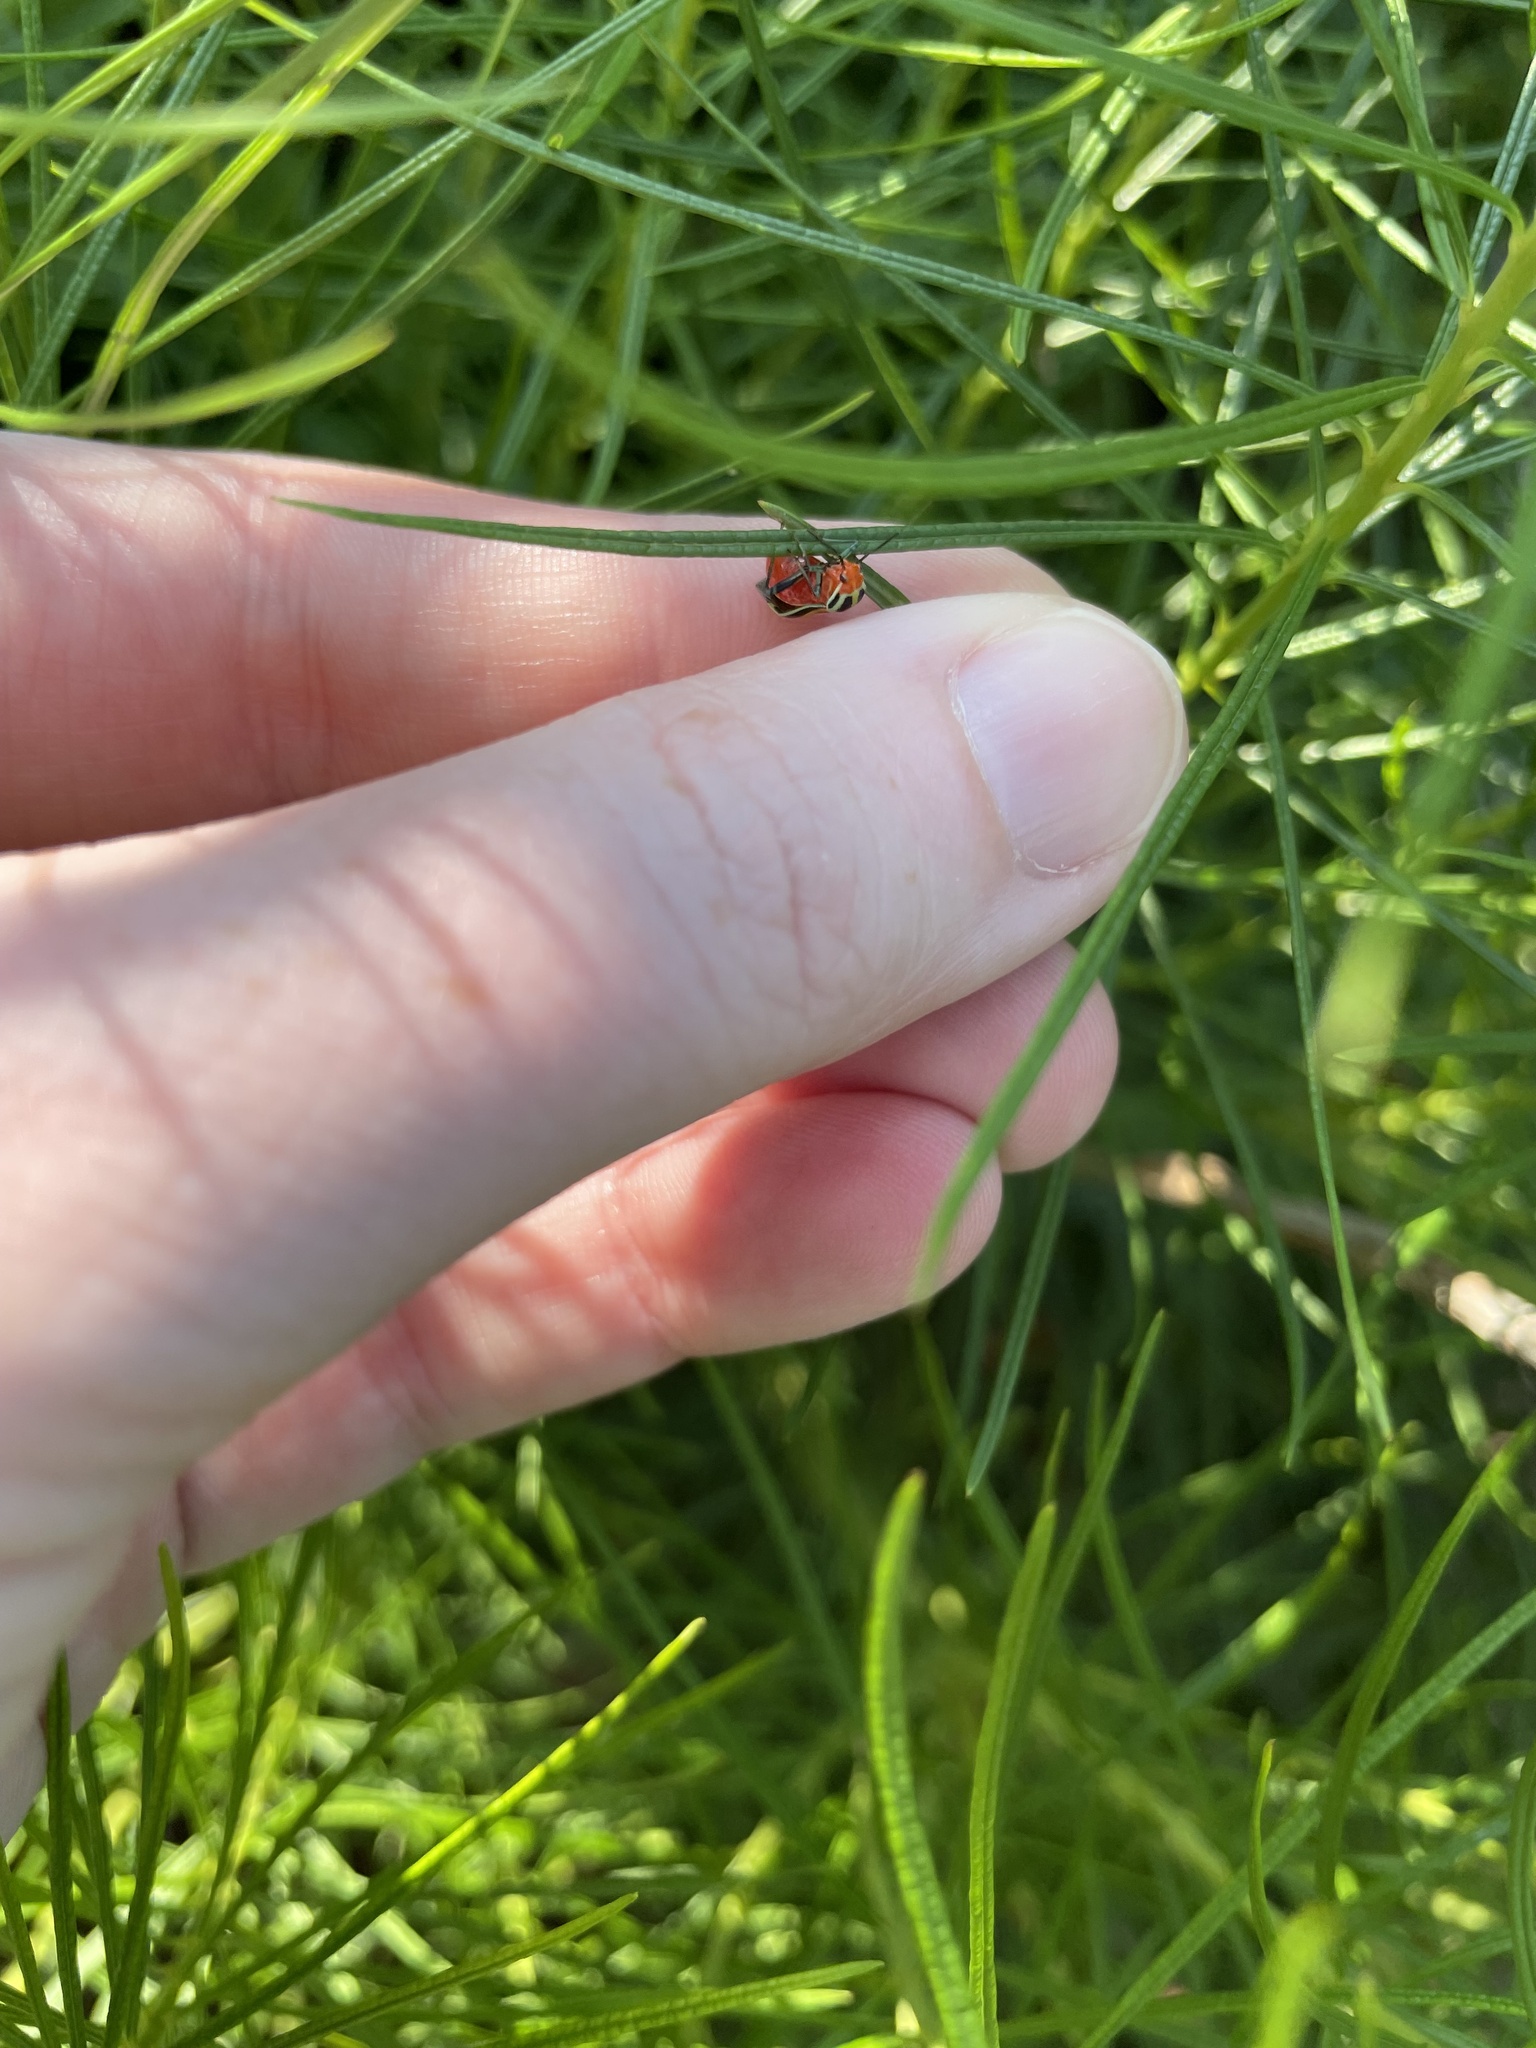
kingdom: Animalia
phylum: Arthropoda
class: Insecta
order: Hemiptera
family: Miridae
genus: Poecilocapsus
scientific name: Poecilocapsus lineatus
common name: Four-lined plant bug
